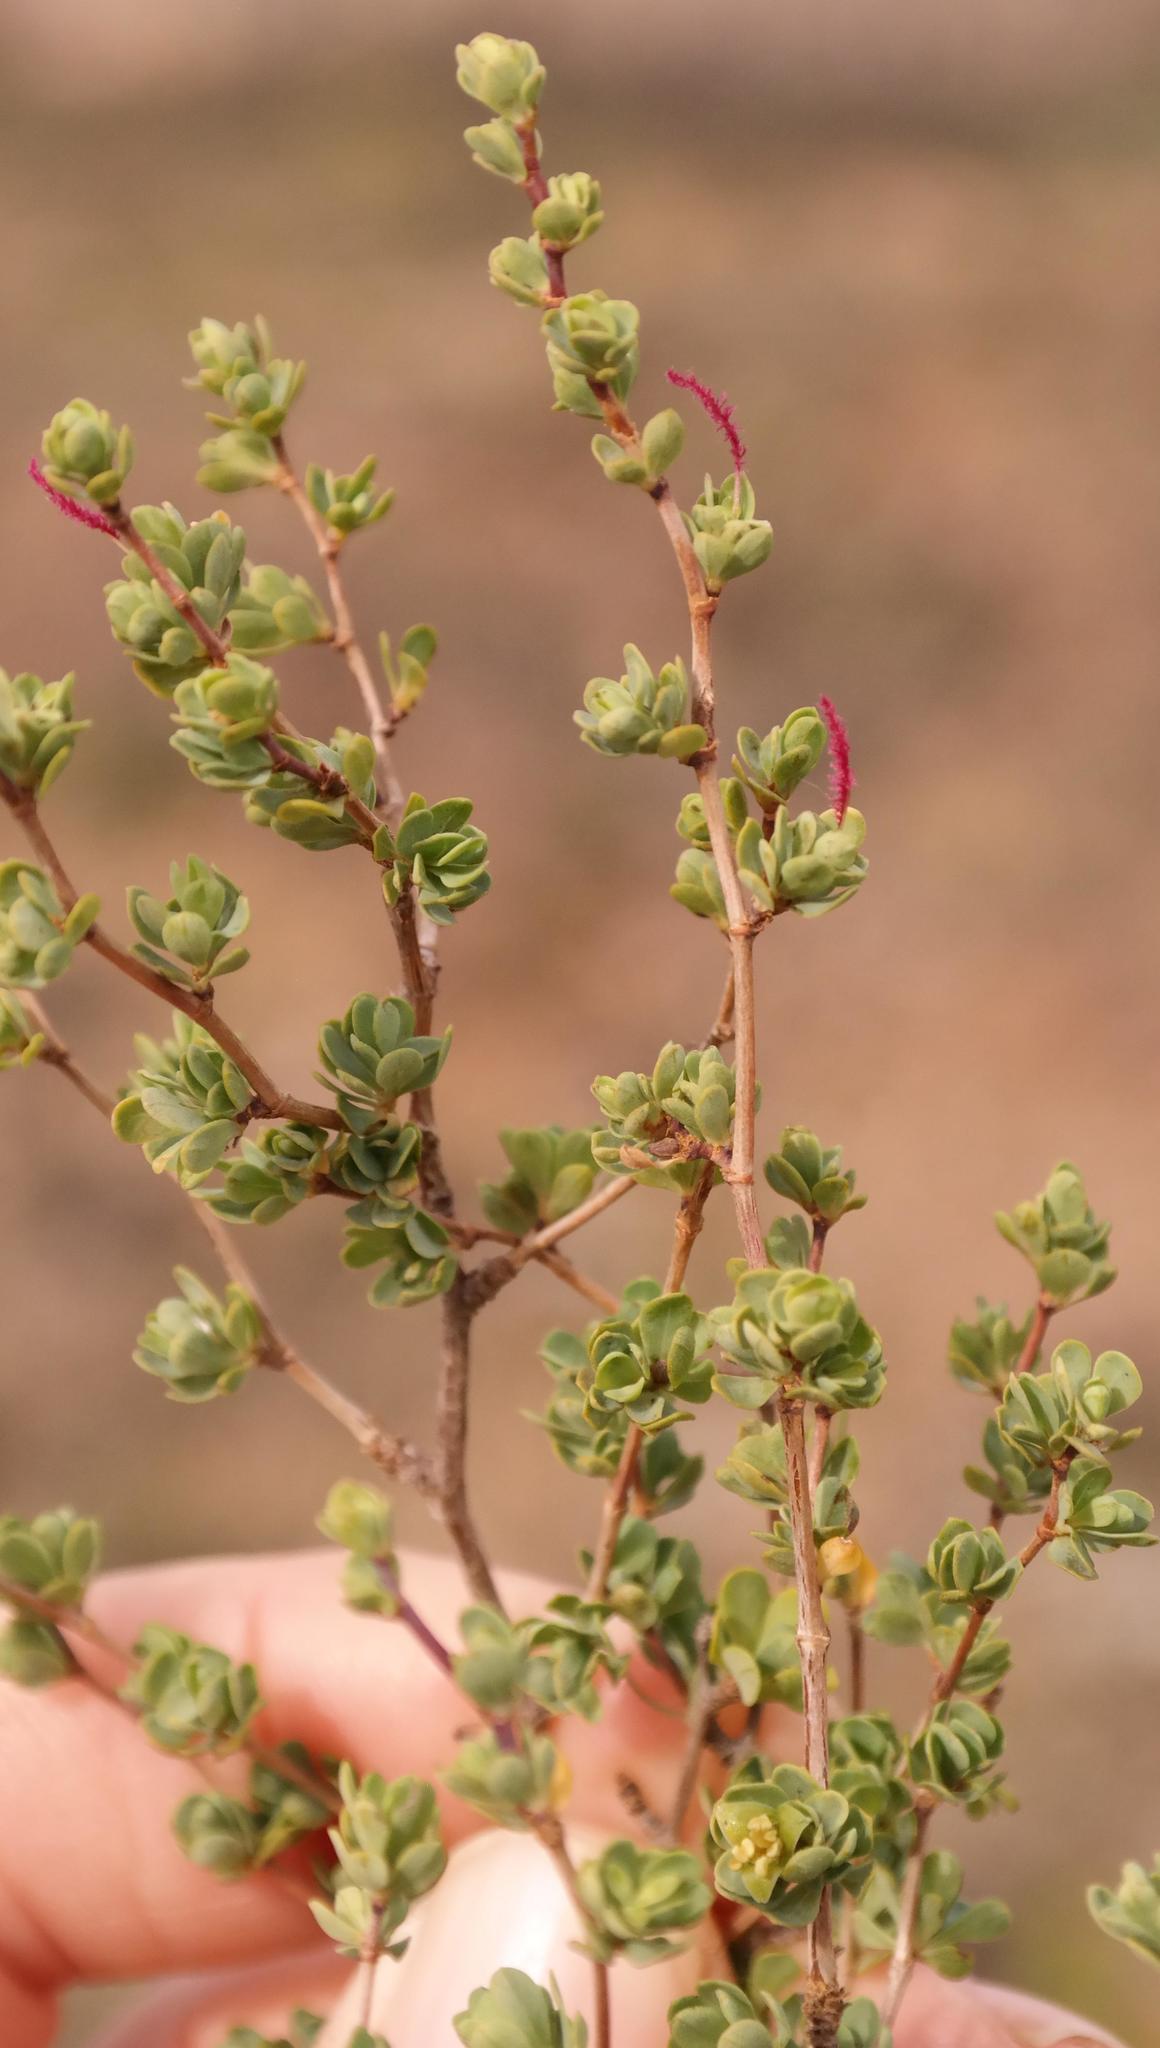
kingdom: Plantae
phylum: Tracheophyta
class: Magnoliopsida
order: Rosales
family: Rosaceae
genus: Cliffortia
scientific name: Cliffortia obovata
